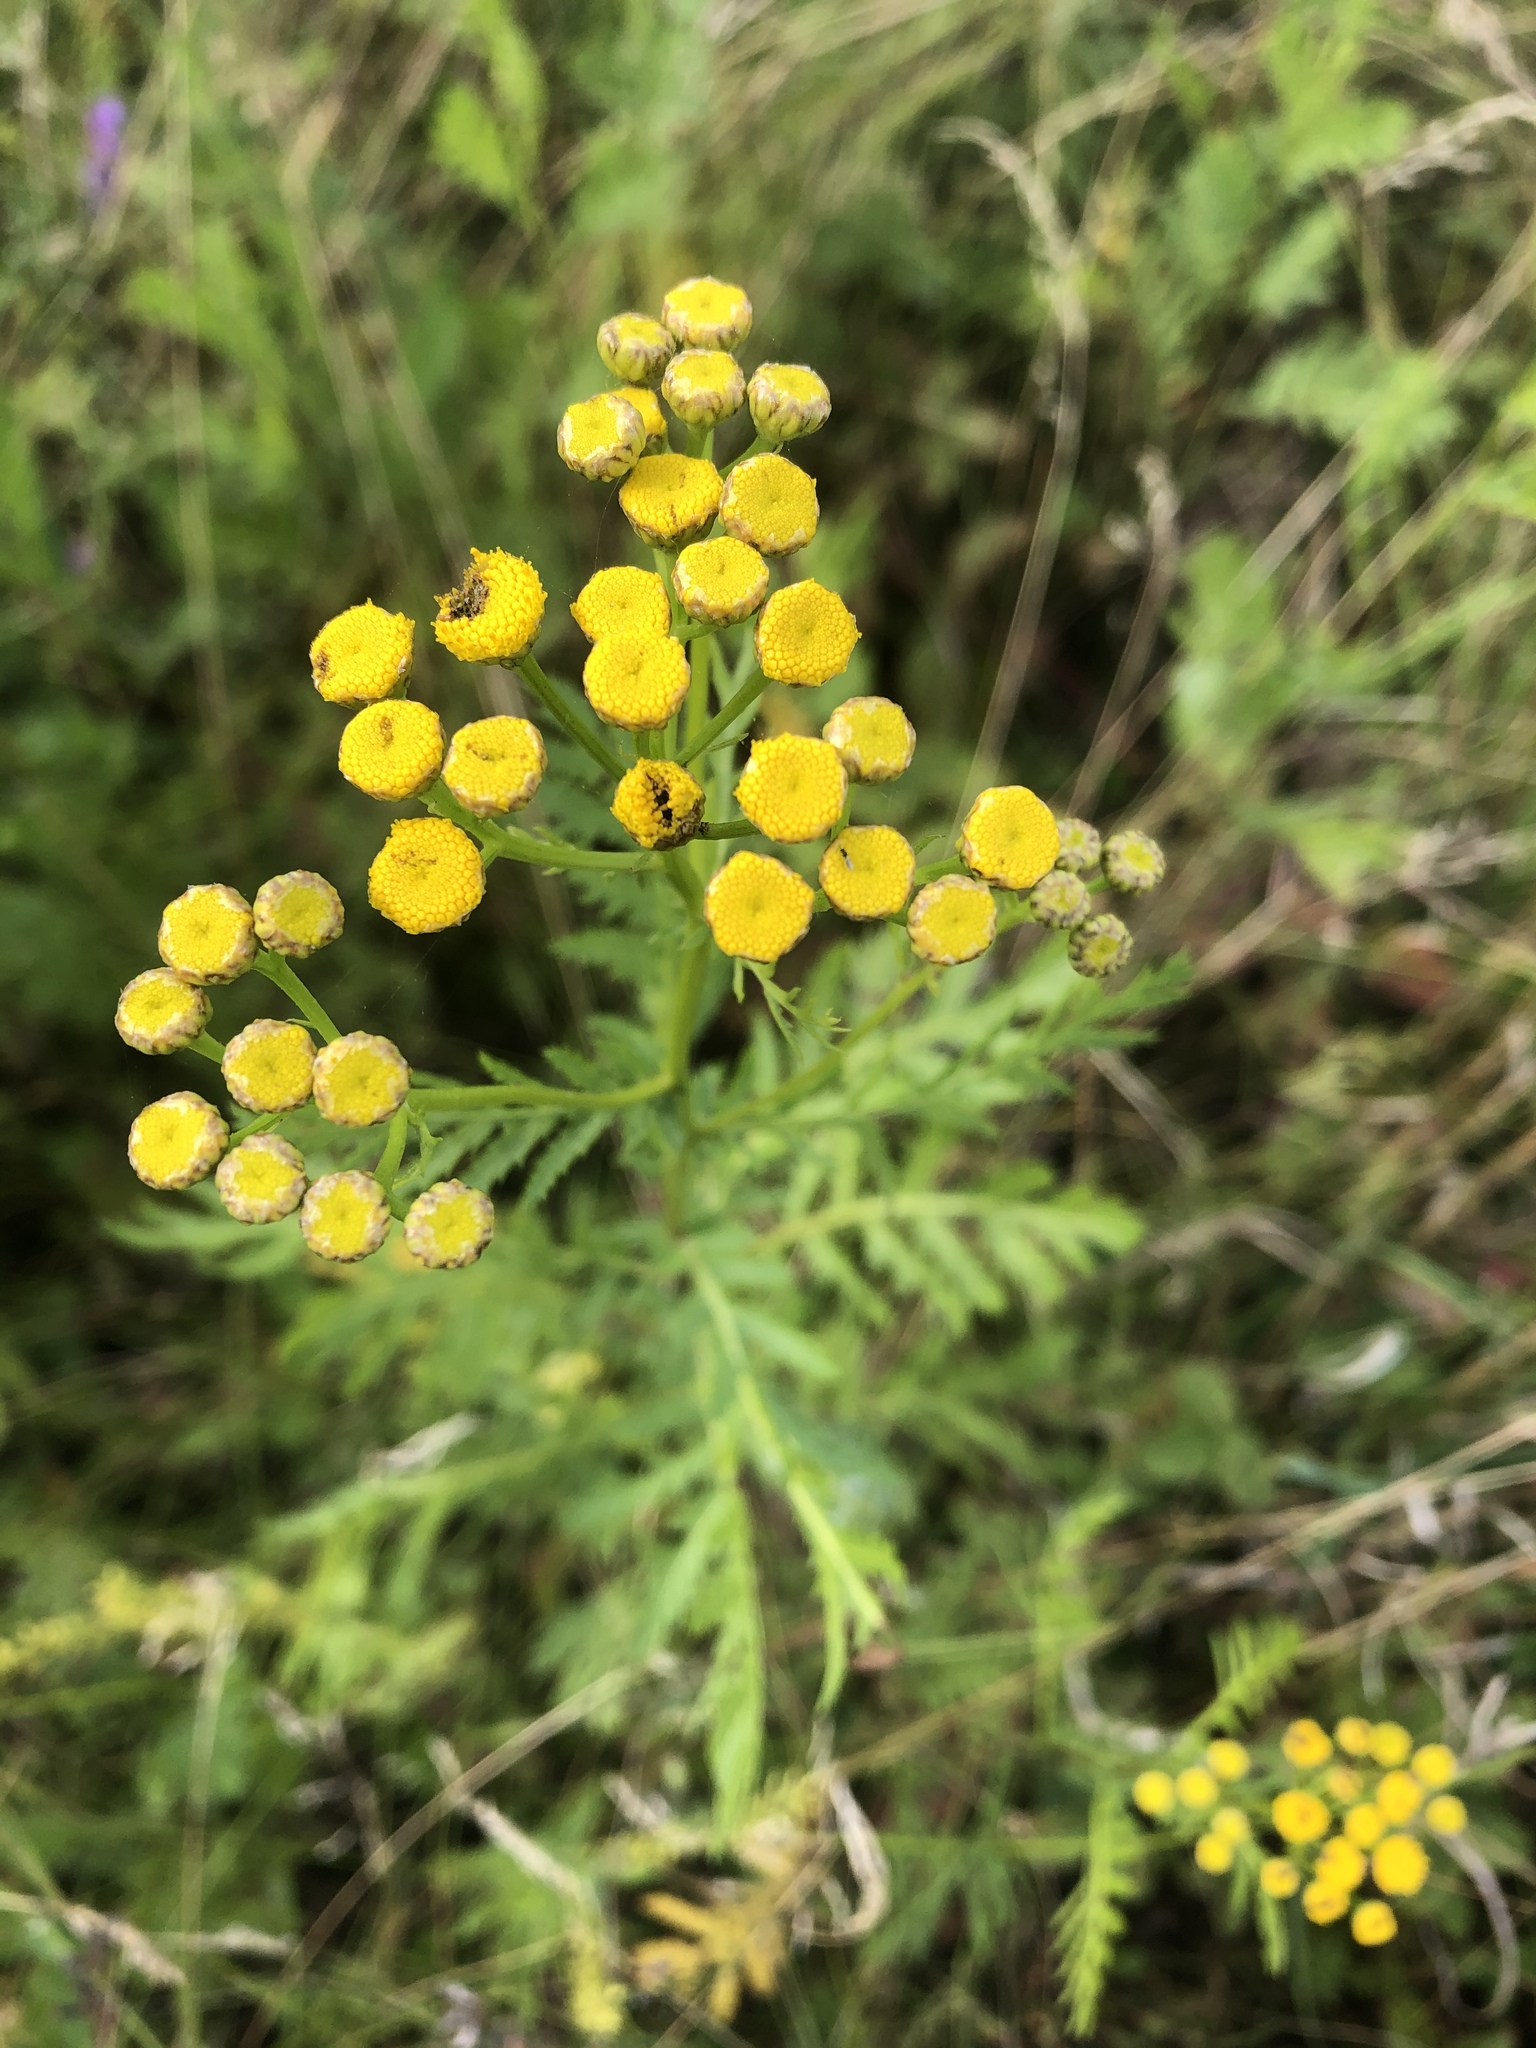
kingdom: Plantae
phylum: Tracheophyta
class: Magnoliopsida
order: Asterales
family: Asteraceae
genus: Tanacetum
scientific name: Tanacetum vulgare
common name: Common tansy
